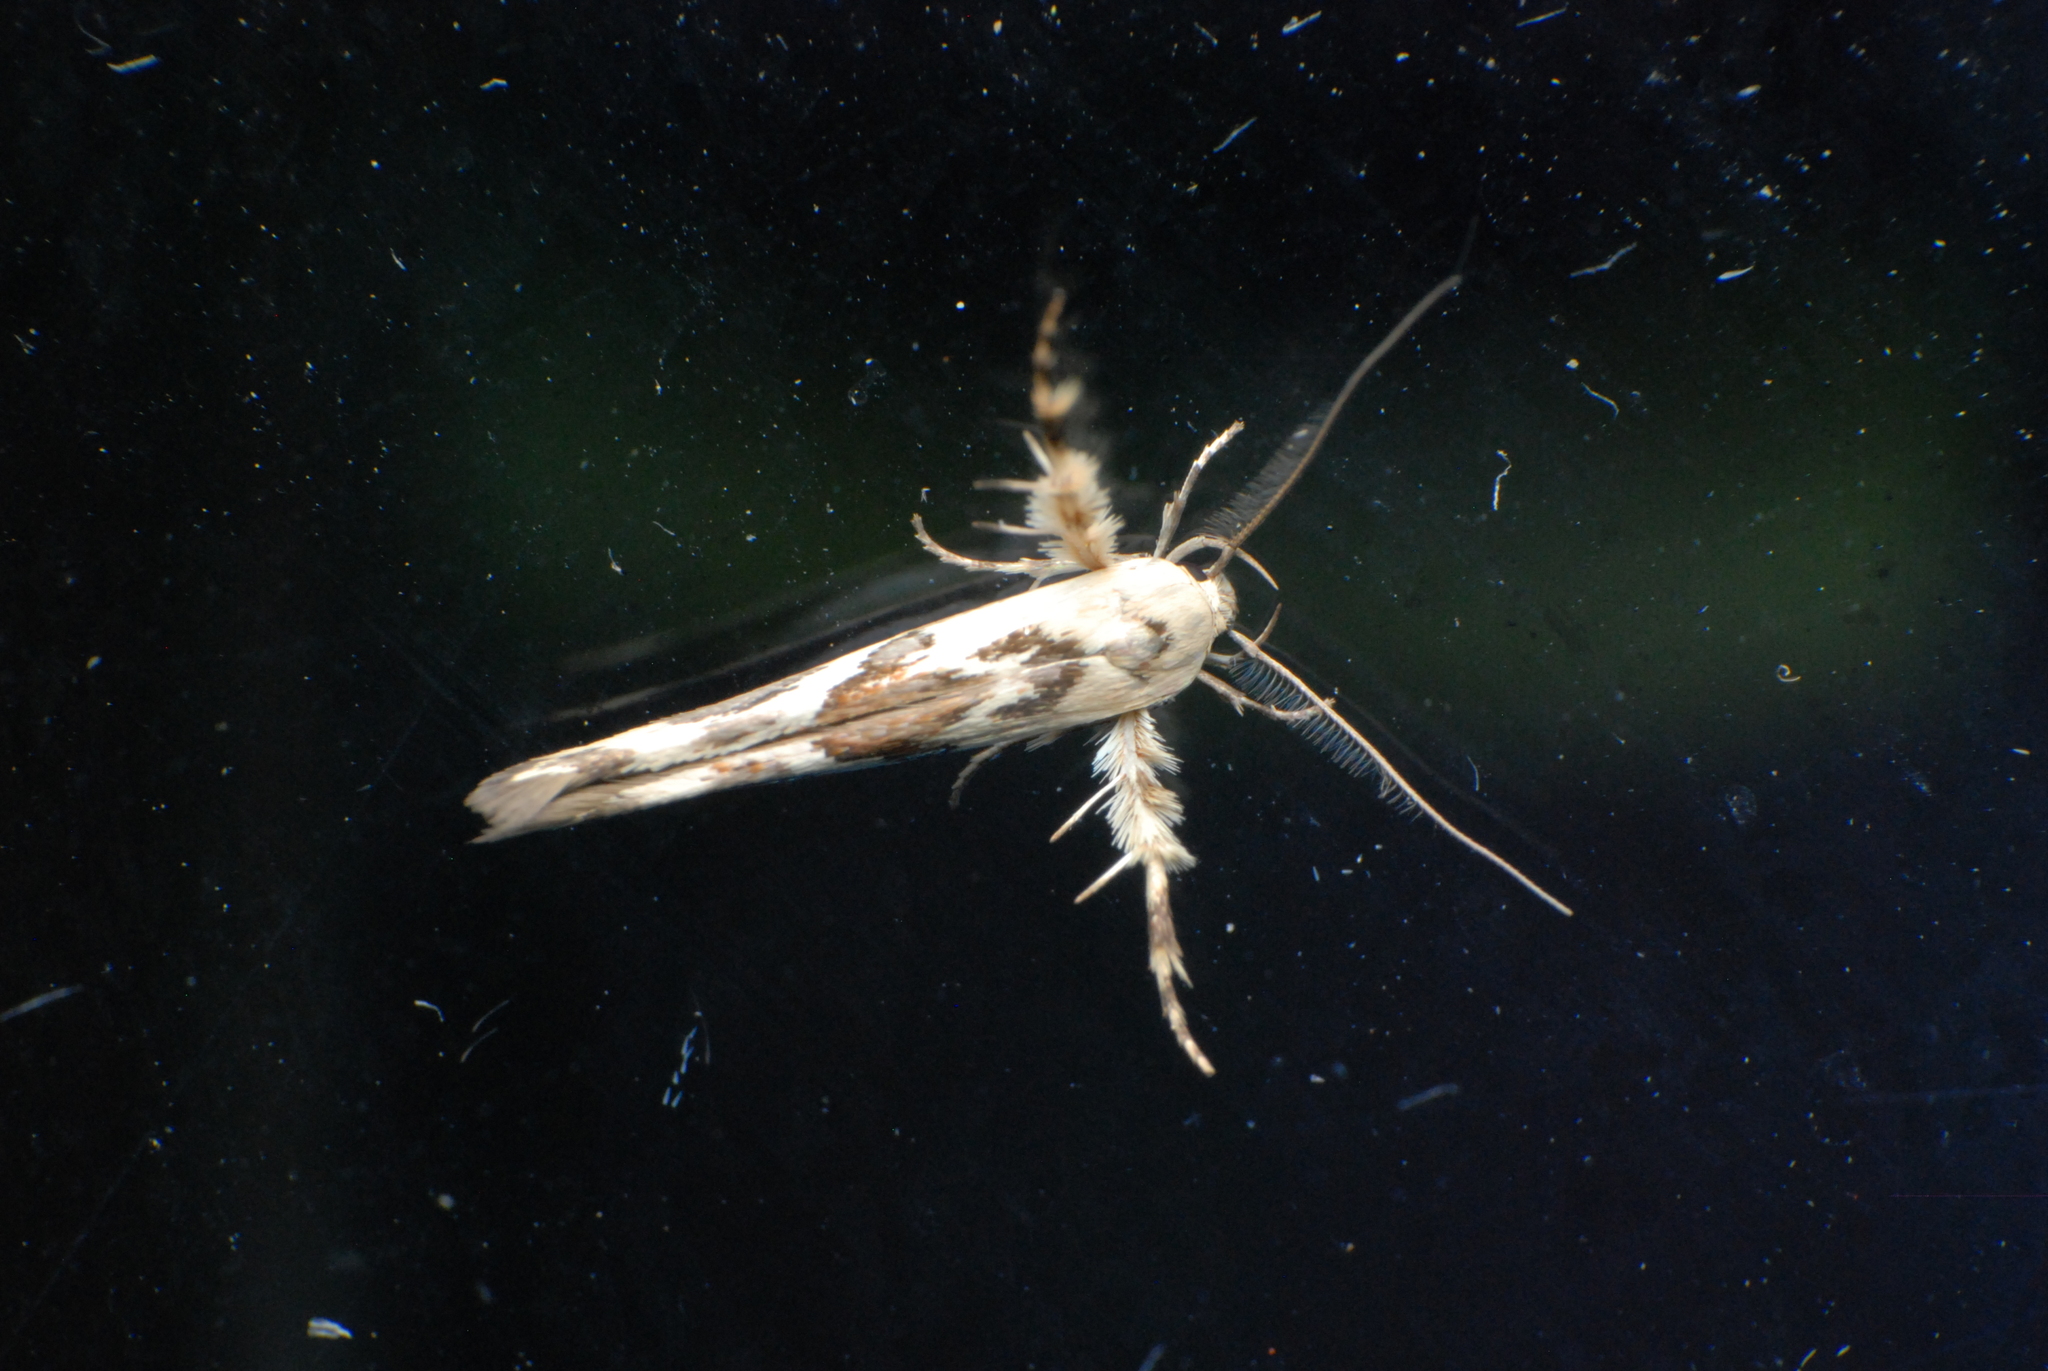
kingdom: Animalia
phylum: Arthropoda
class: Insecta
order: Lepidoptera
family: Stathmopodidae
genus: Stathmopoda
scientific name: Stathmopoda melanochra
